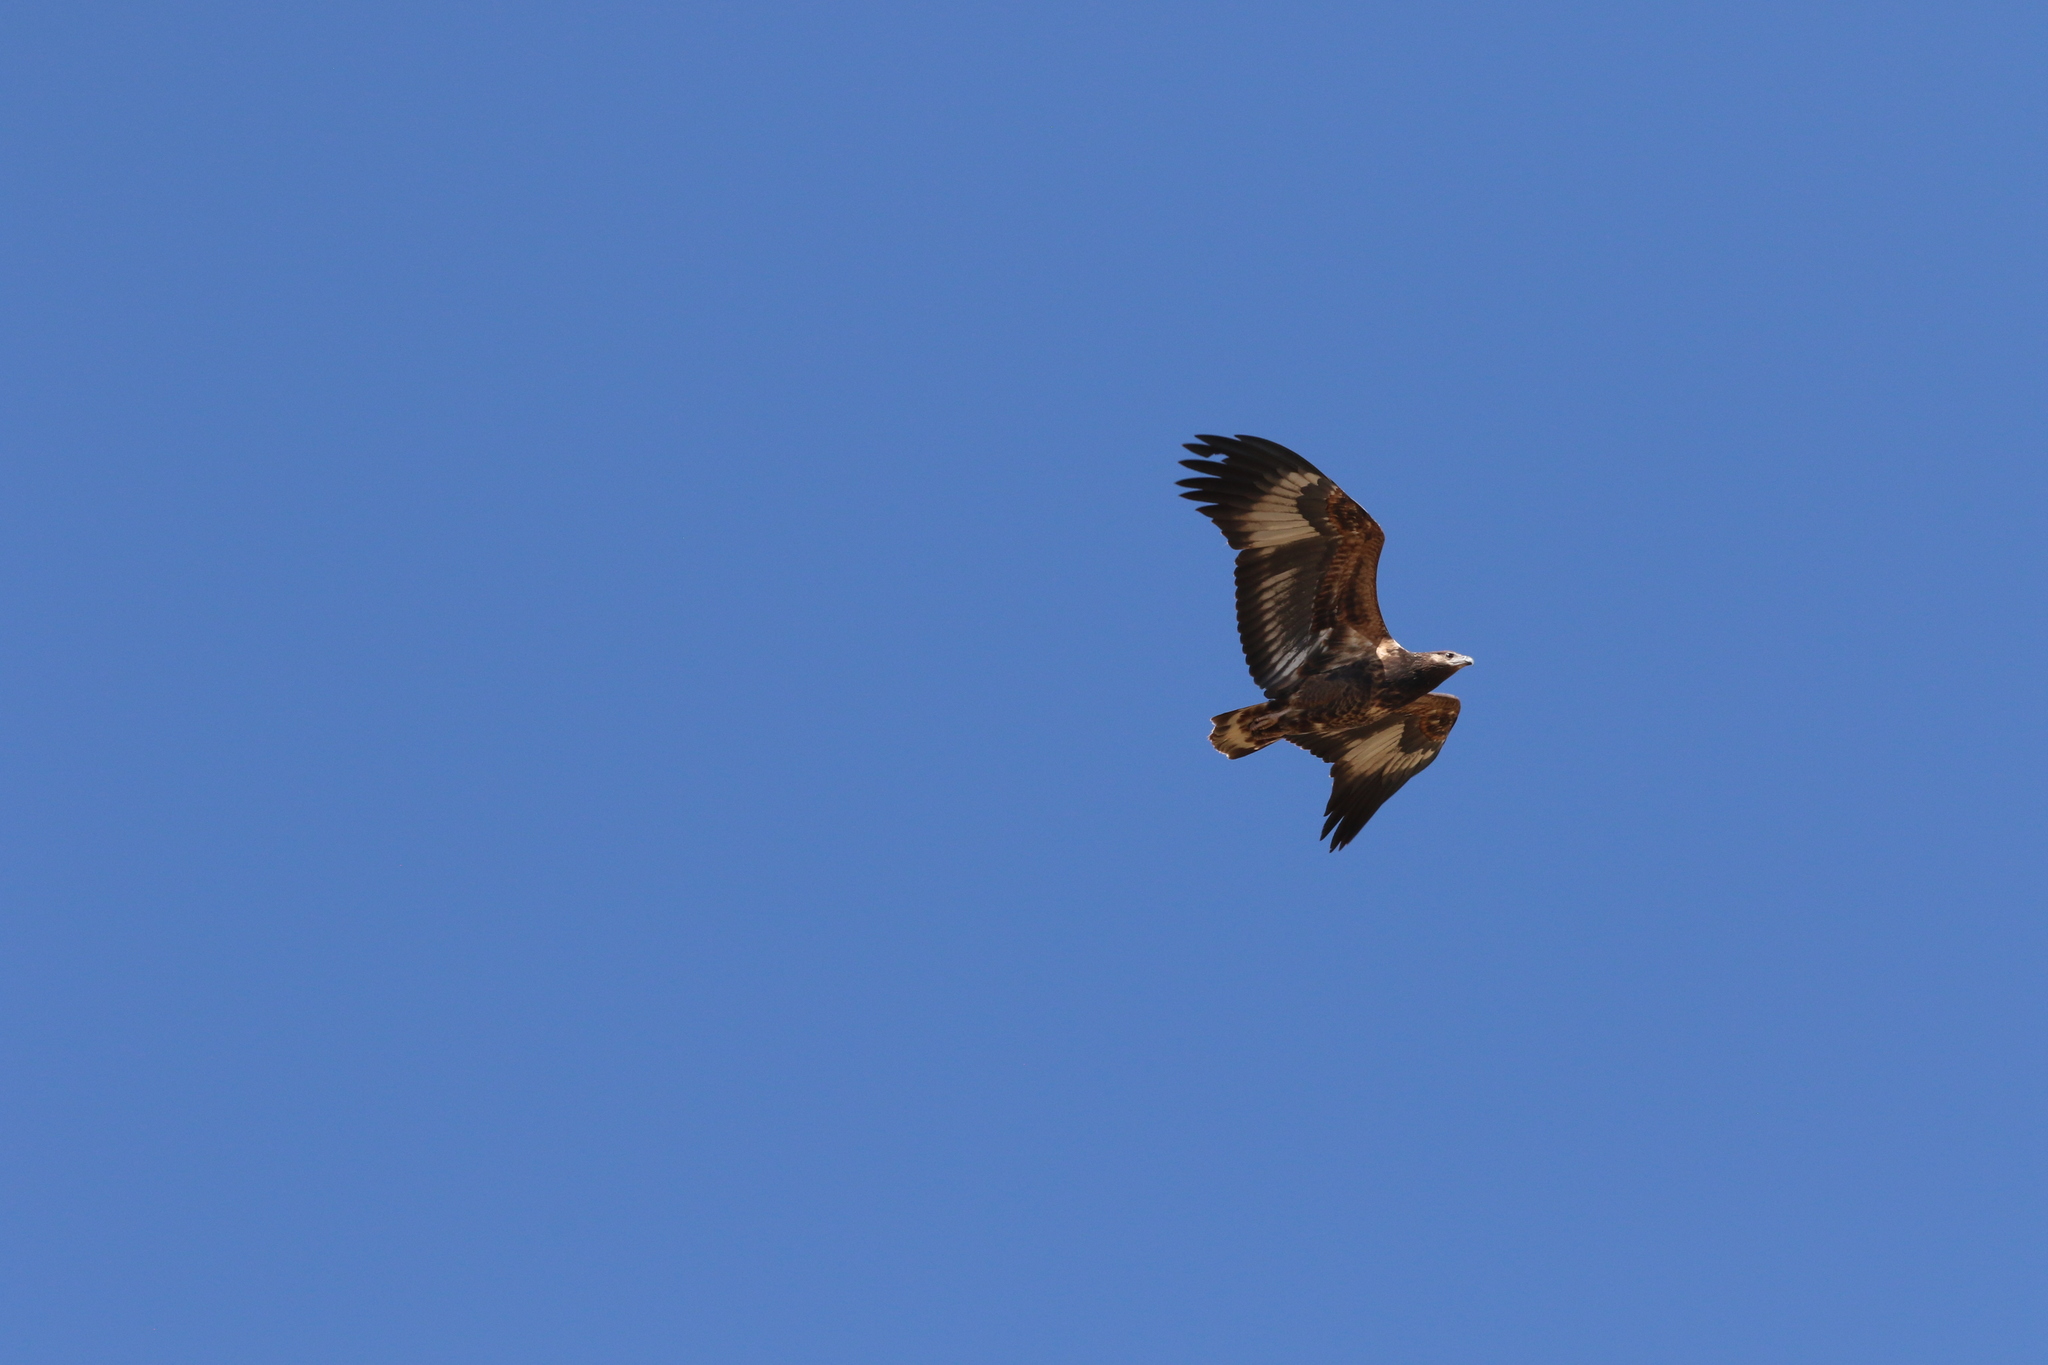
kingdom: Animalia
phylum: Chordata
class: Aves
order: Accipitriformes
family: Accipitridae
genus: Haliaeetus
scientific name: Haliaeetus vocifer
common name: African fish eagle
